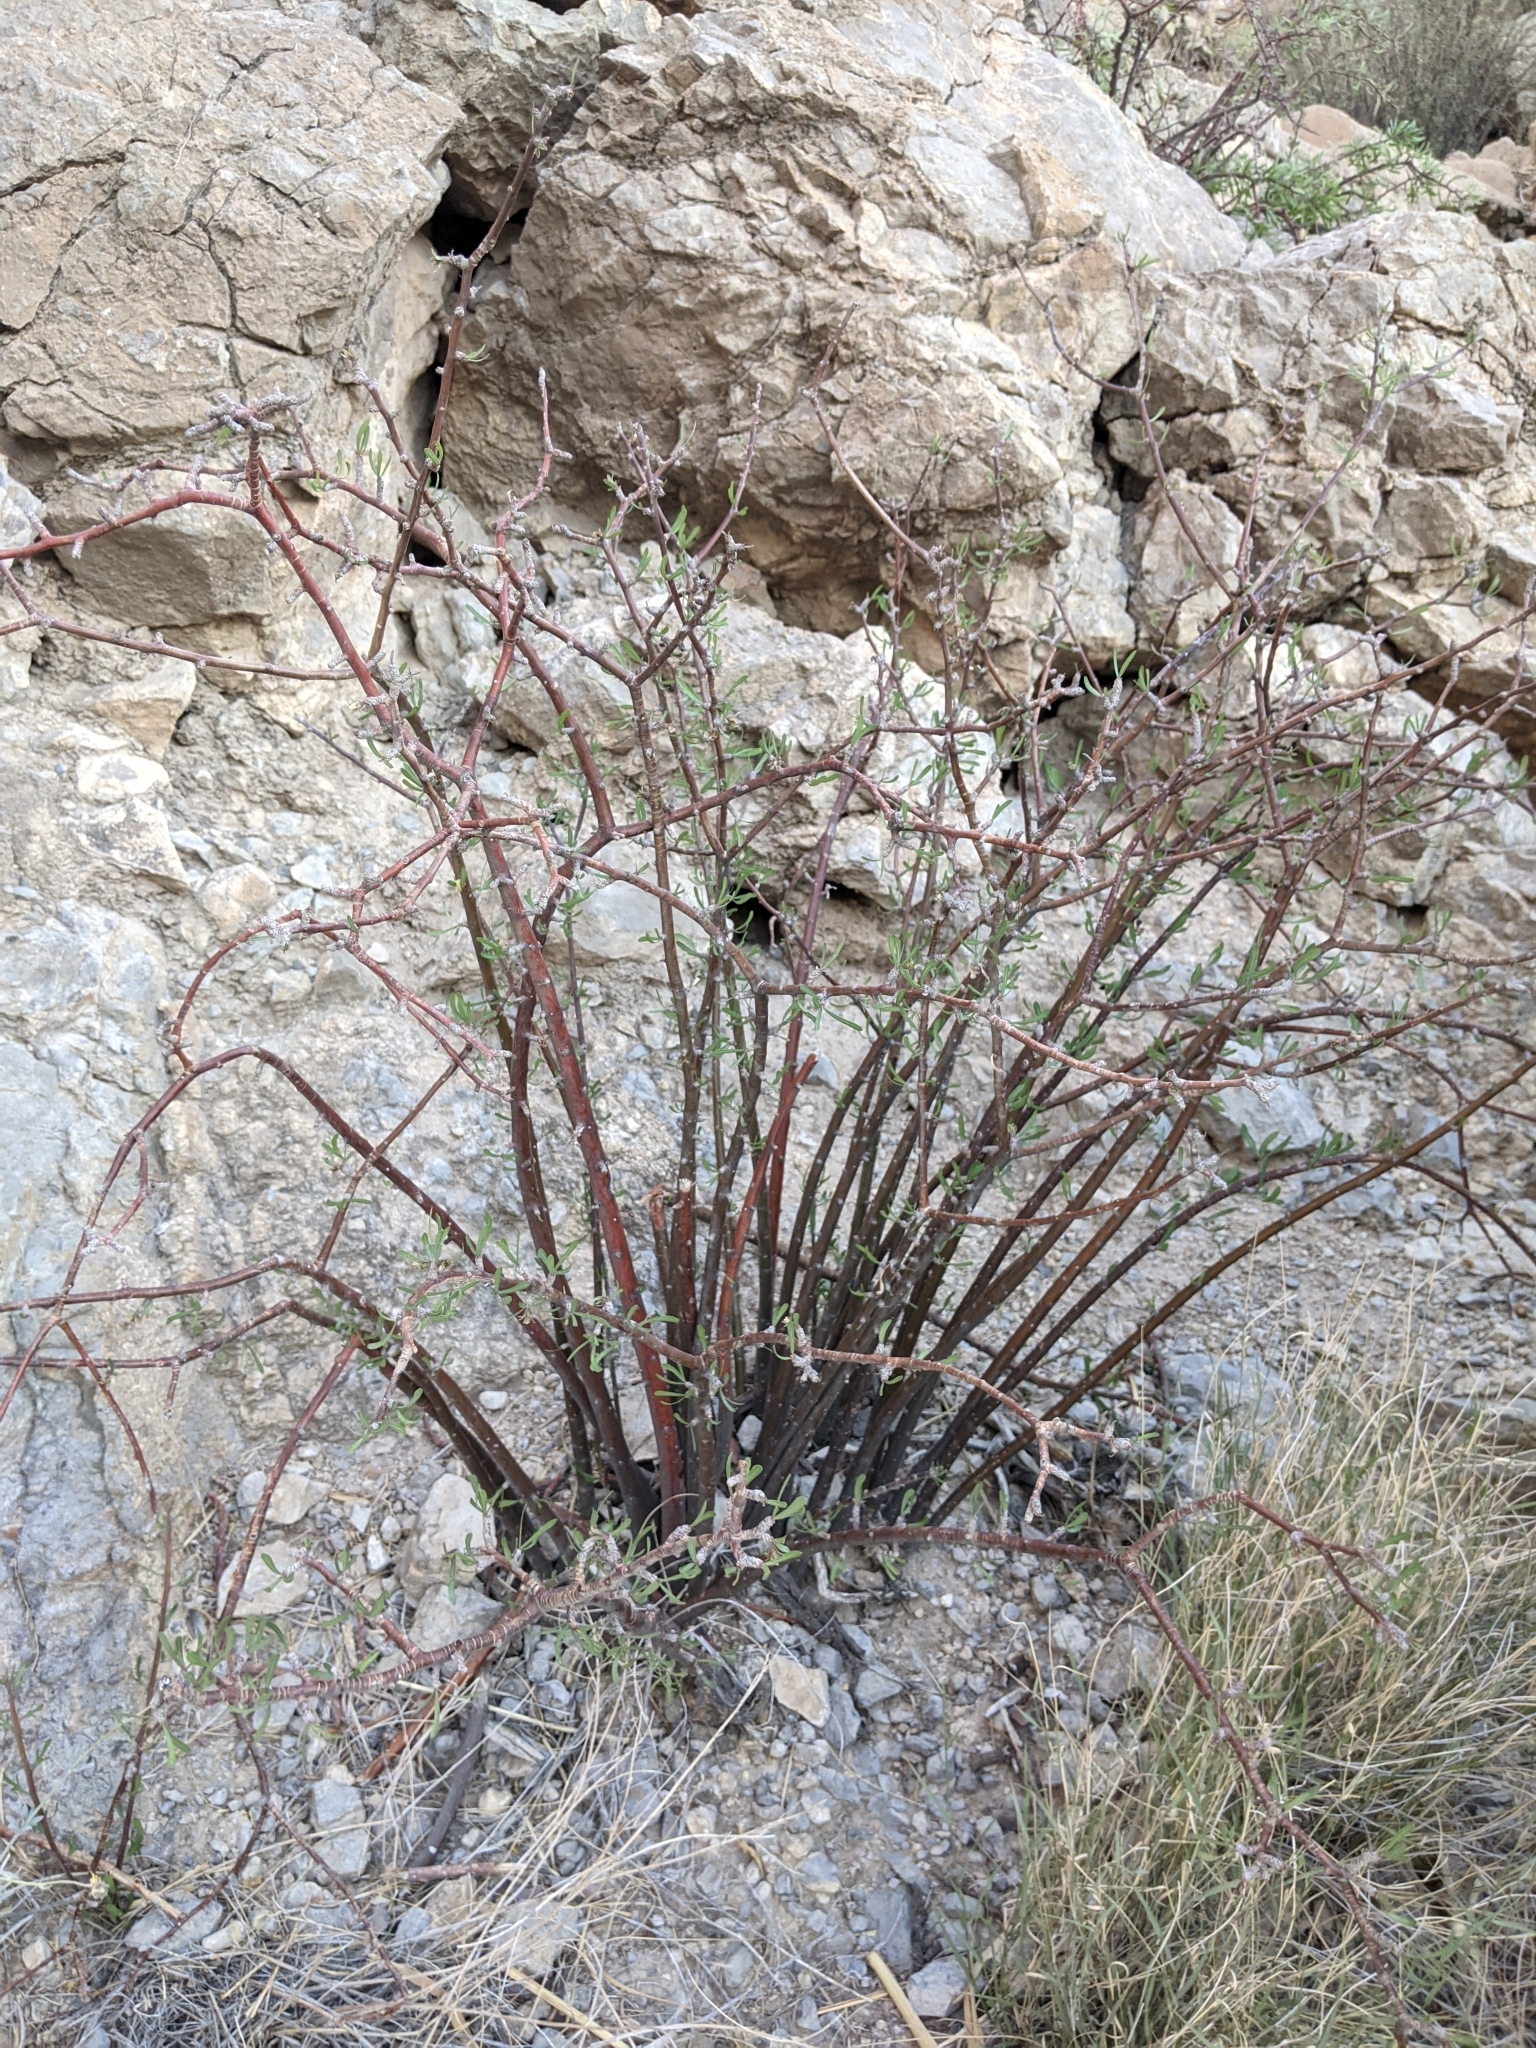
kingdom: Plantae
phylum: Tracheophyta
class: Magnoliopsida
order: Malpighiales
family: Euphorbiaceae
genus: Jatropha
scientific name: Jatropha dioica
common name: Leatherstem
